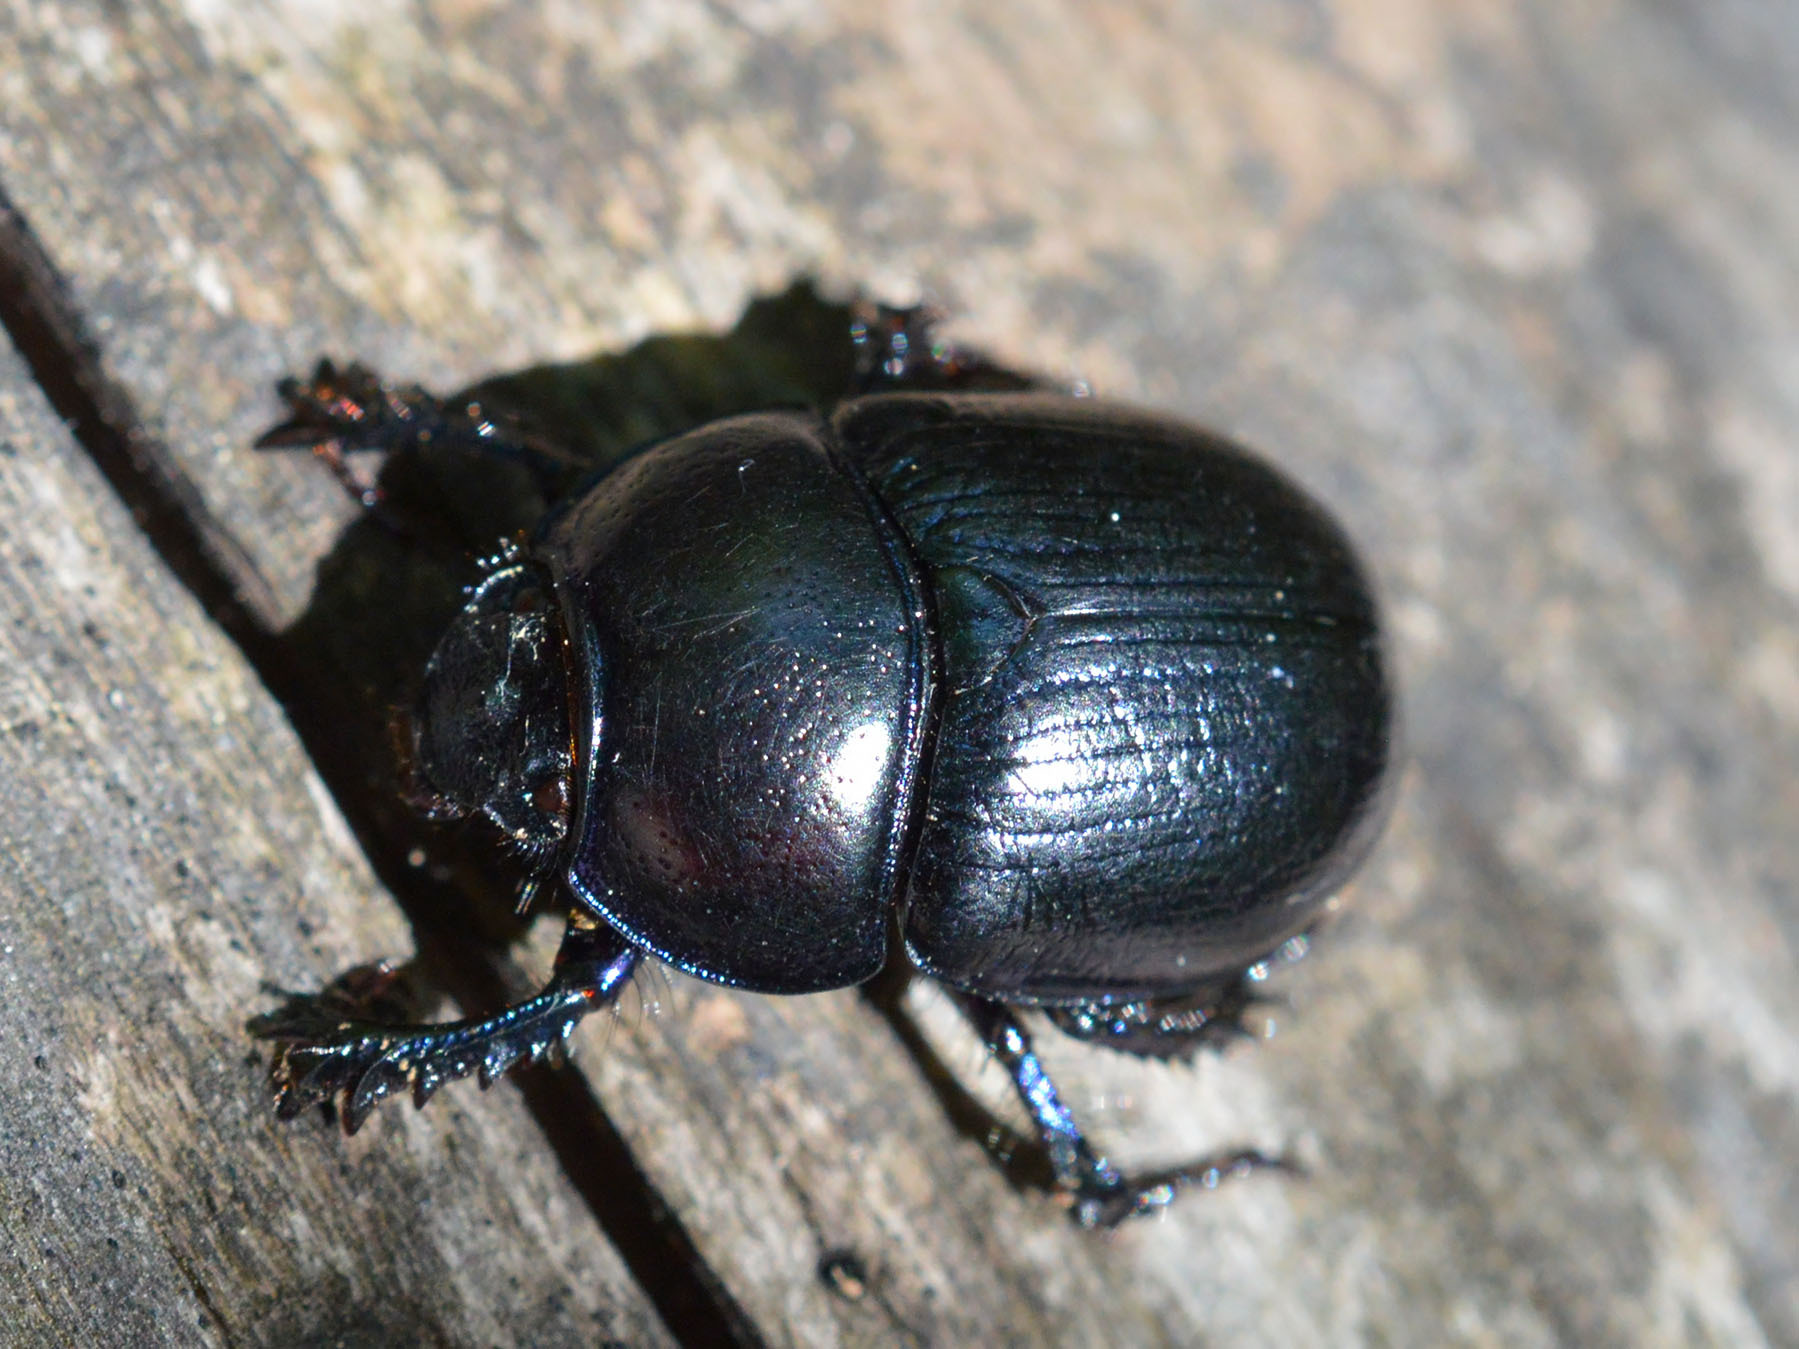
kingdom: Animalia
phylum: Arthropoda
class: Insecta
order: Coleoptera
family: Geotrupidae
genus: Anoplotrupes
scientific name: Anoplotrupes stercorosus
